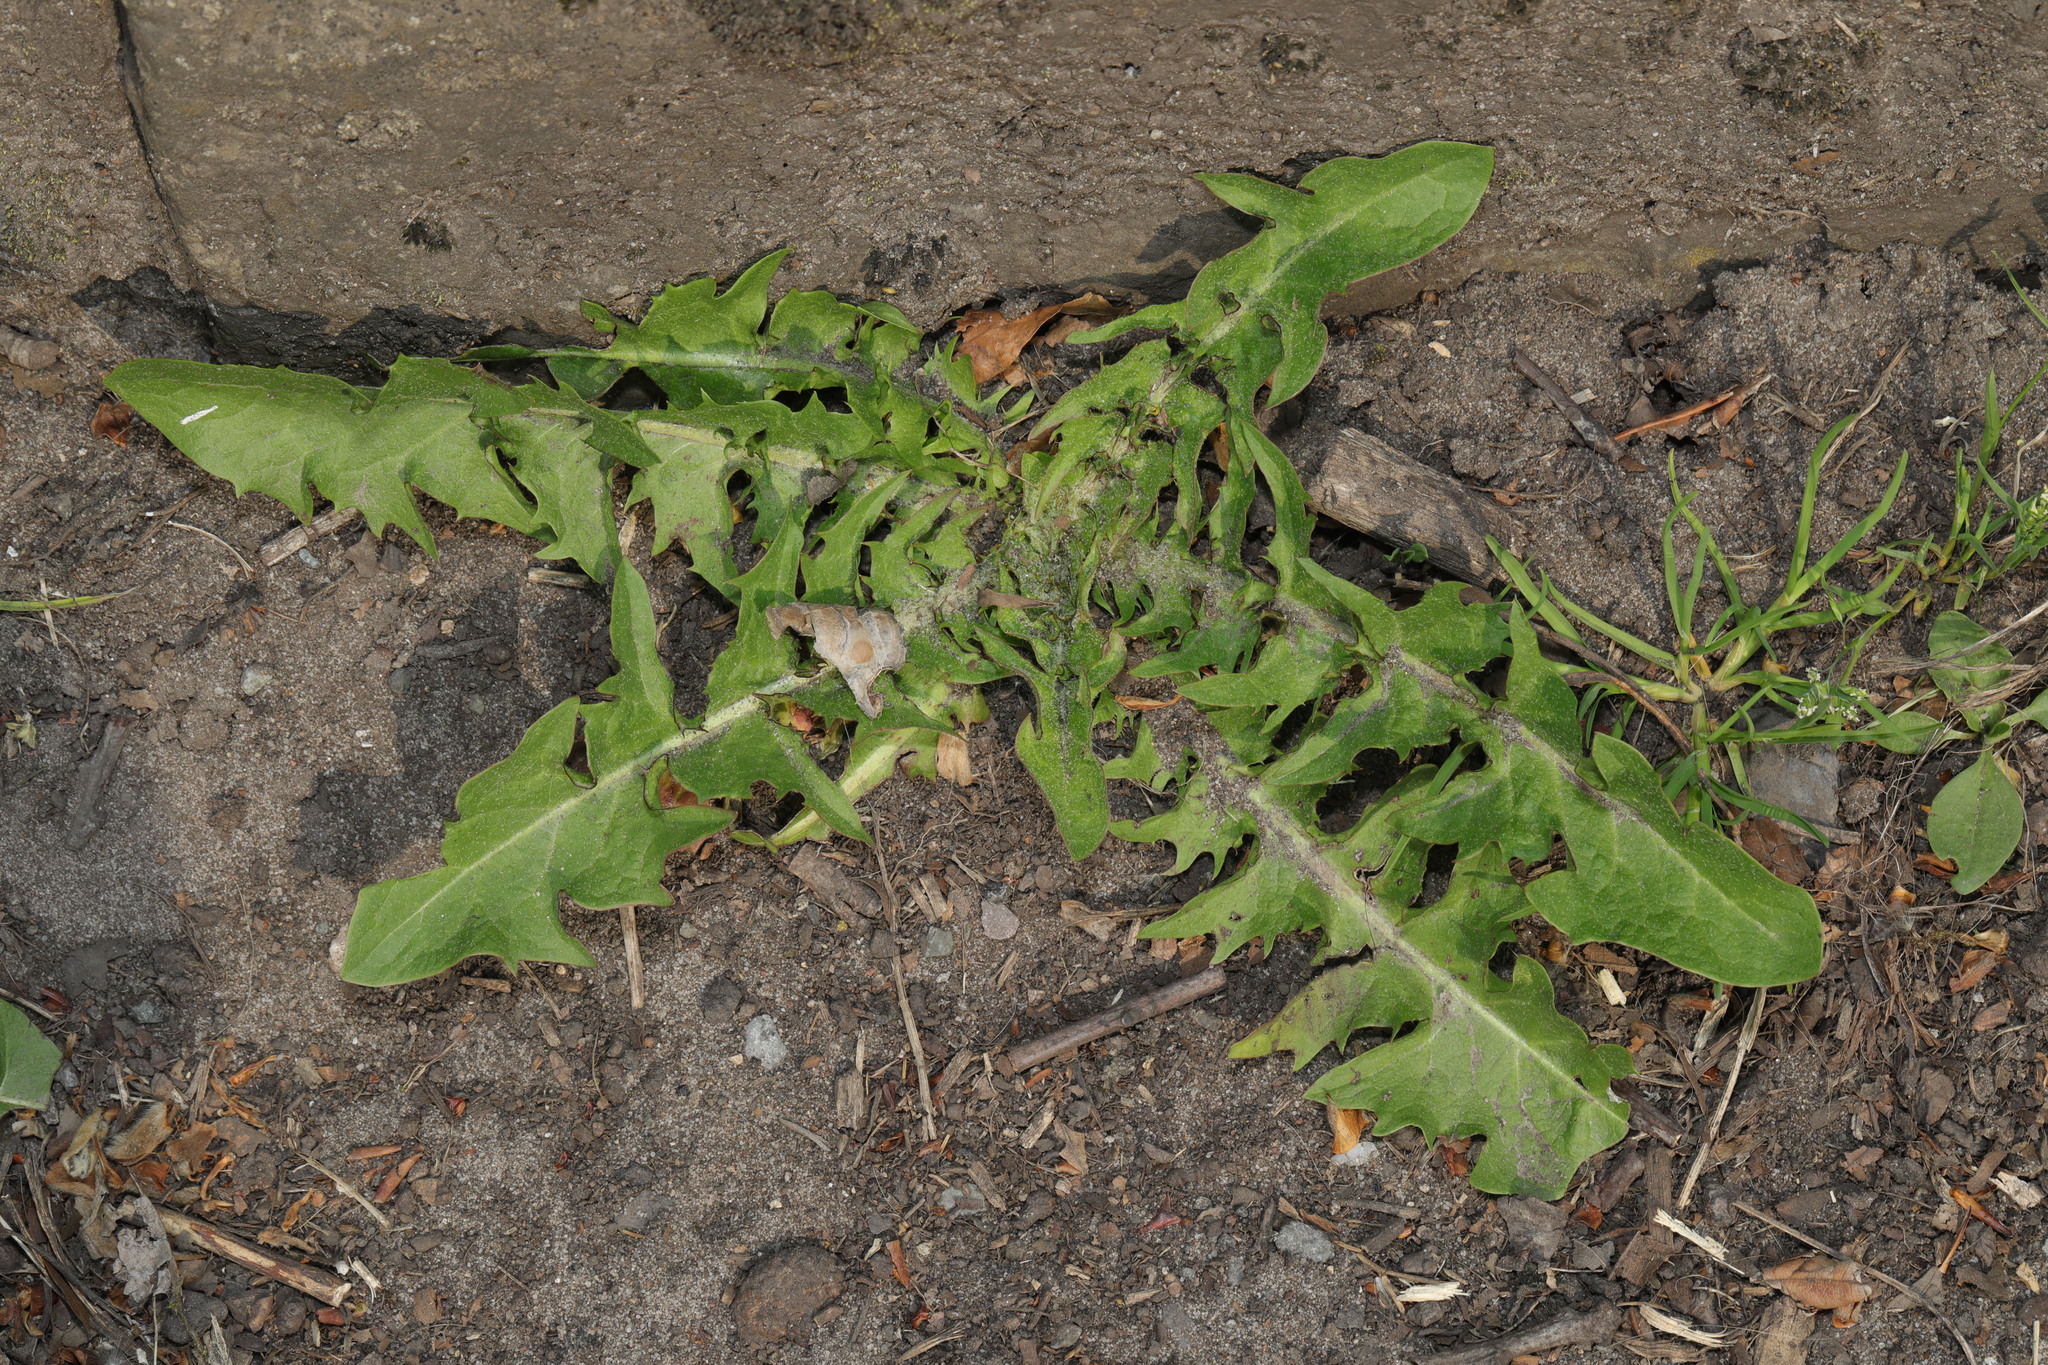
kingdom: Plantae
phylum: Tracheophyta
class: Magnoliopsida
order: Asterales
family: Asteraceae
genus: Taraxacum
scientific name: Taraxacum officinale
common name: Common dandelion
